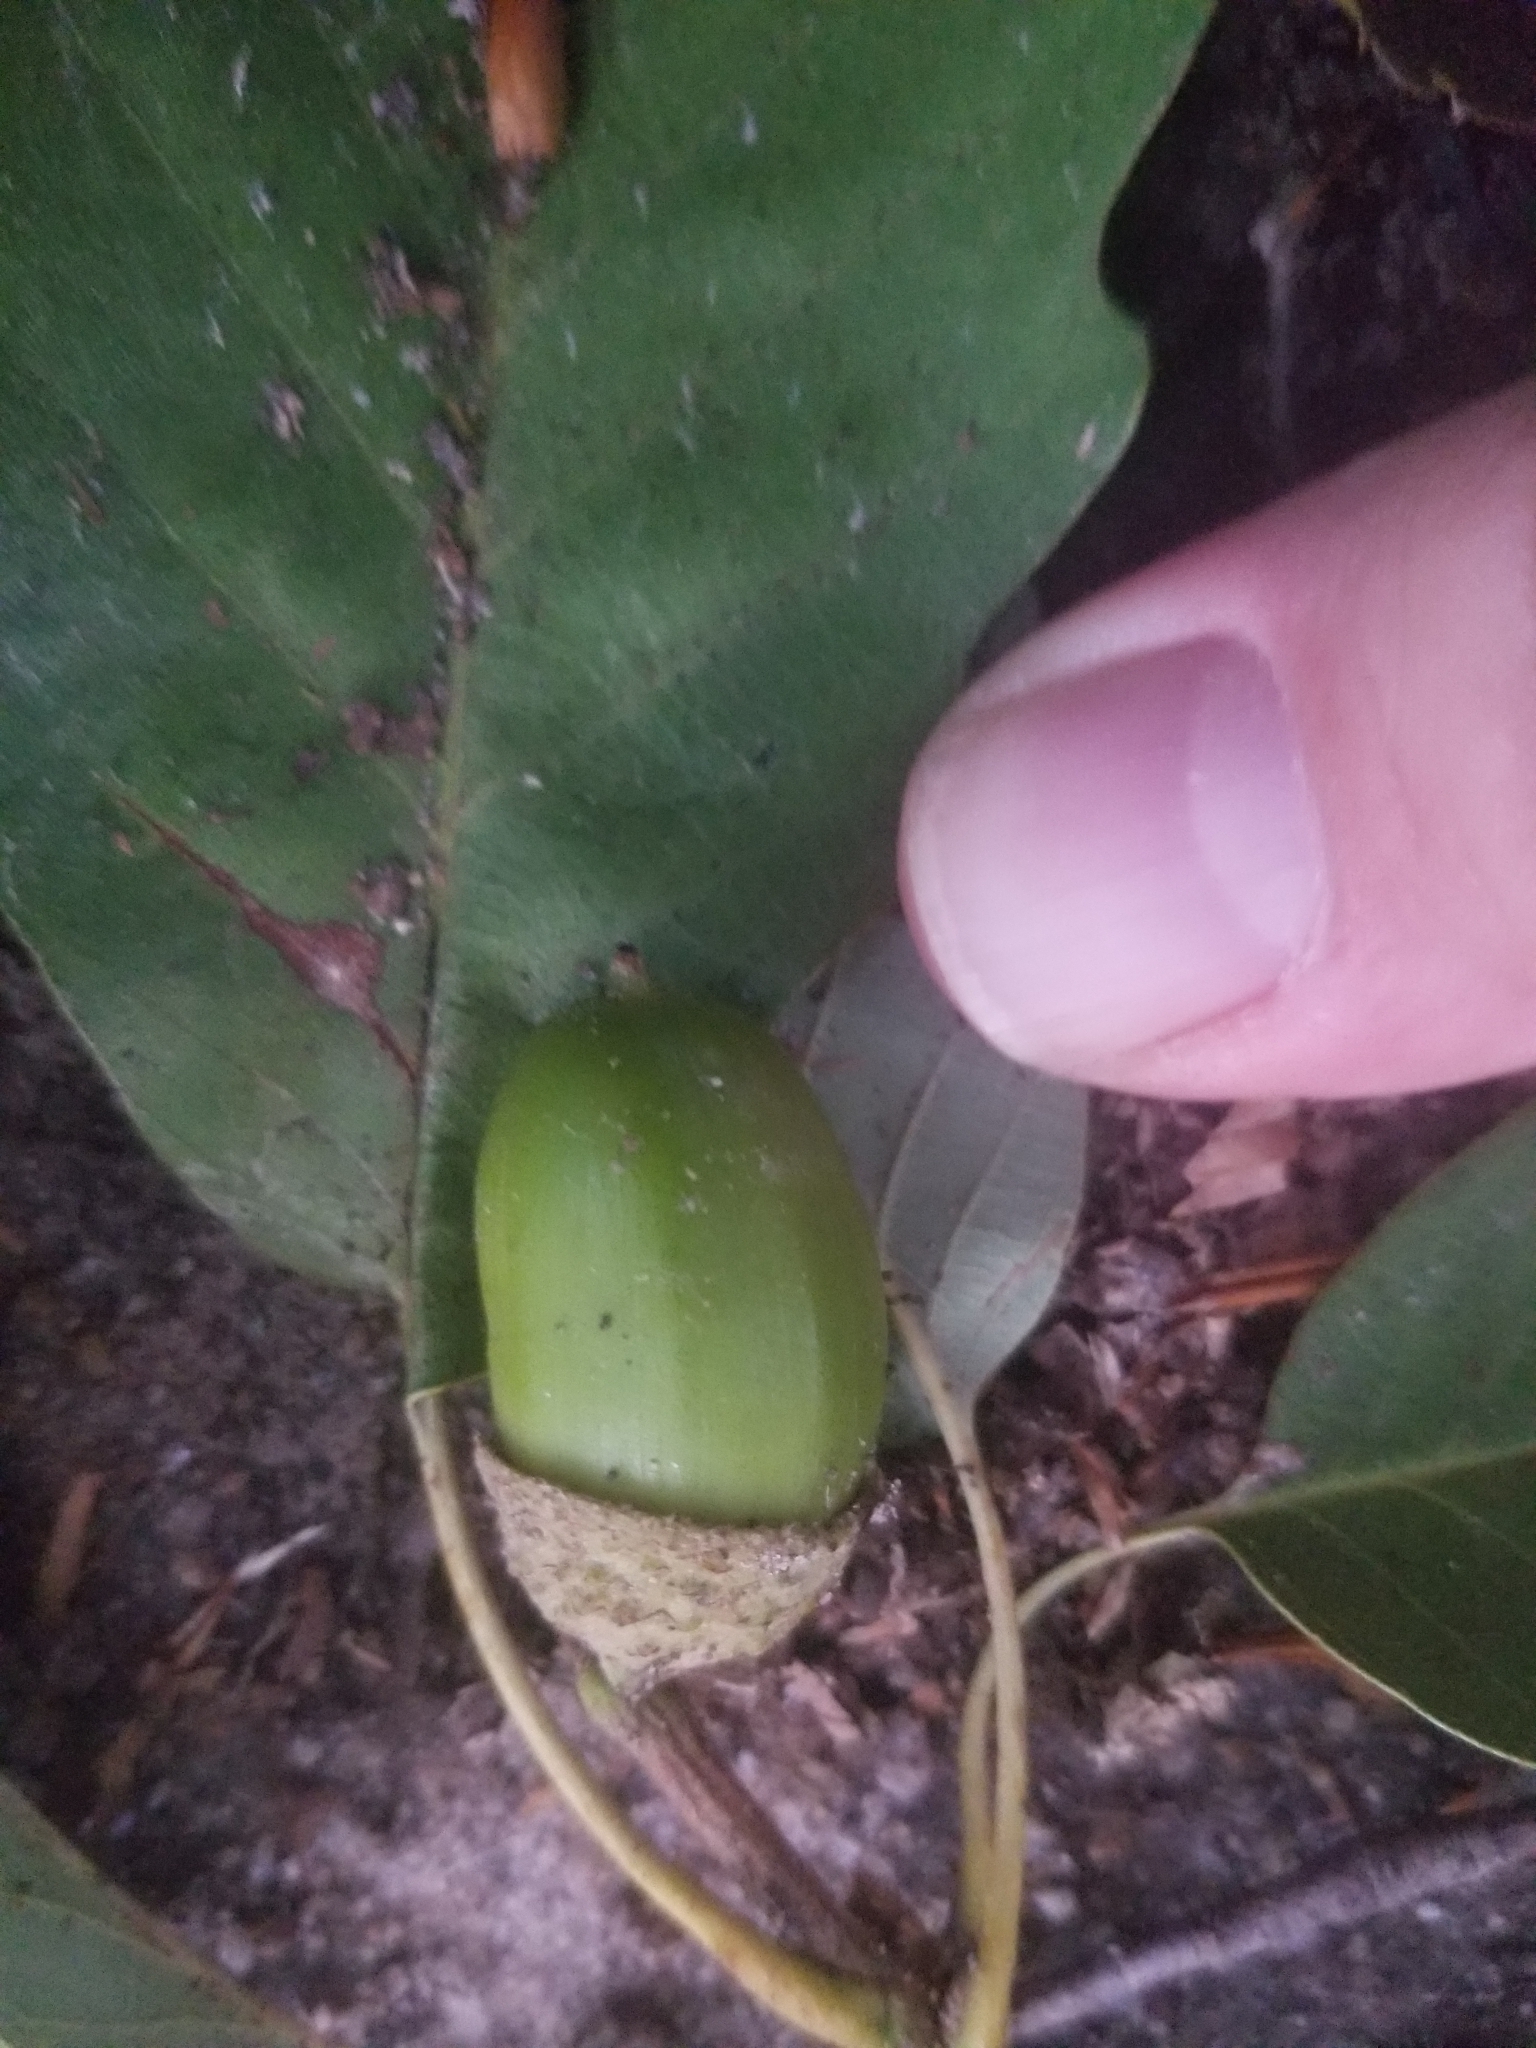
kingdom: Plantae
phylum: Tracheophyta
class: Magnoliopsida
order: Fagales
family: Fagaceae
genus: Quercus
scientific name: Quercus montana
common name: Chestnut oak
